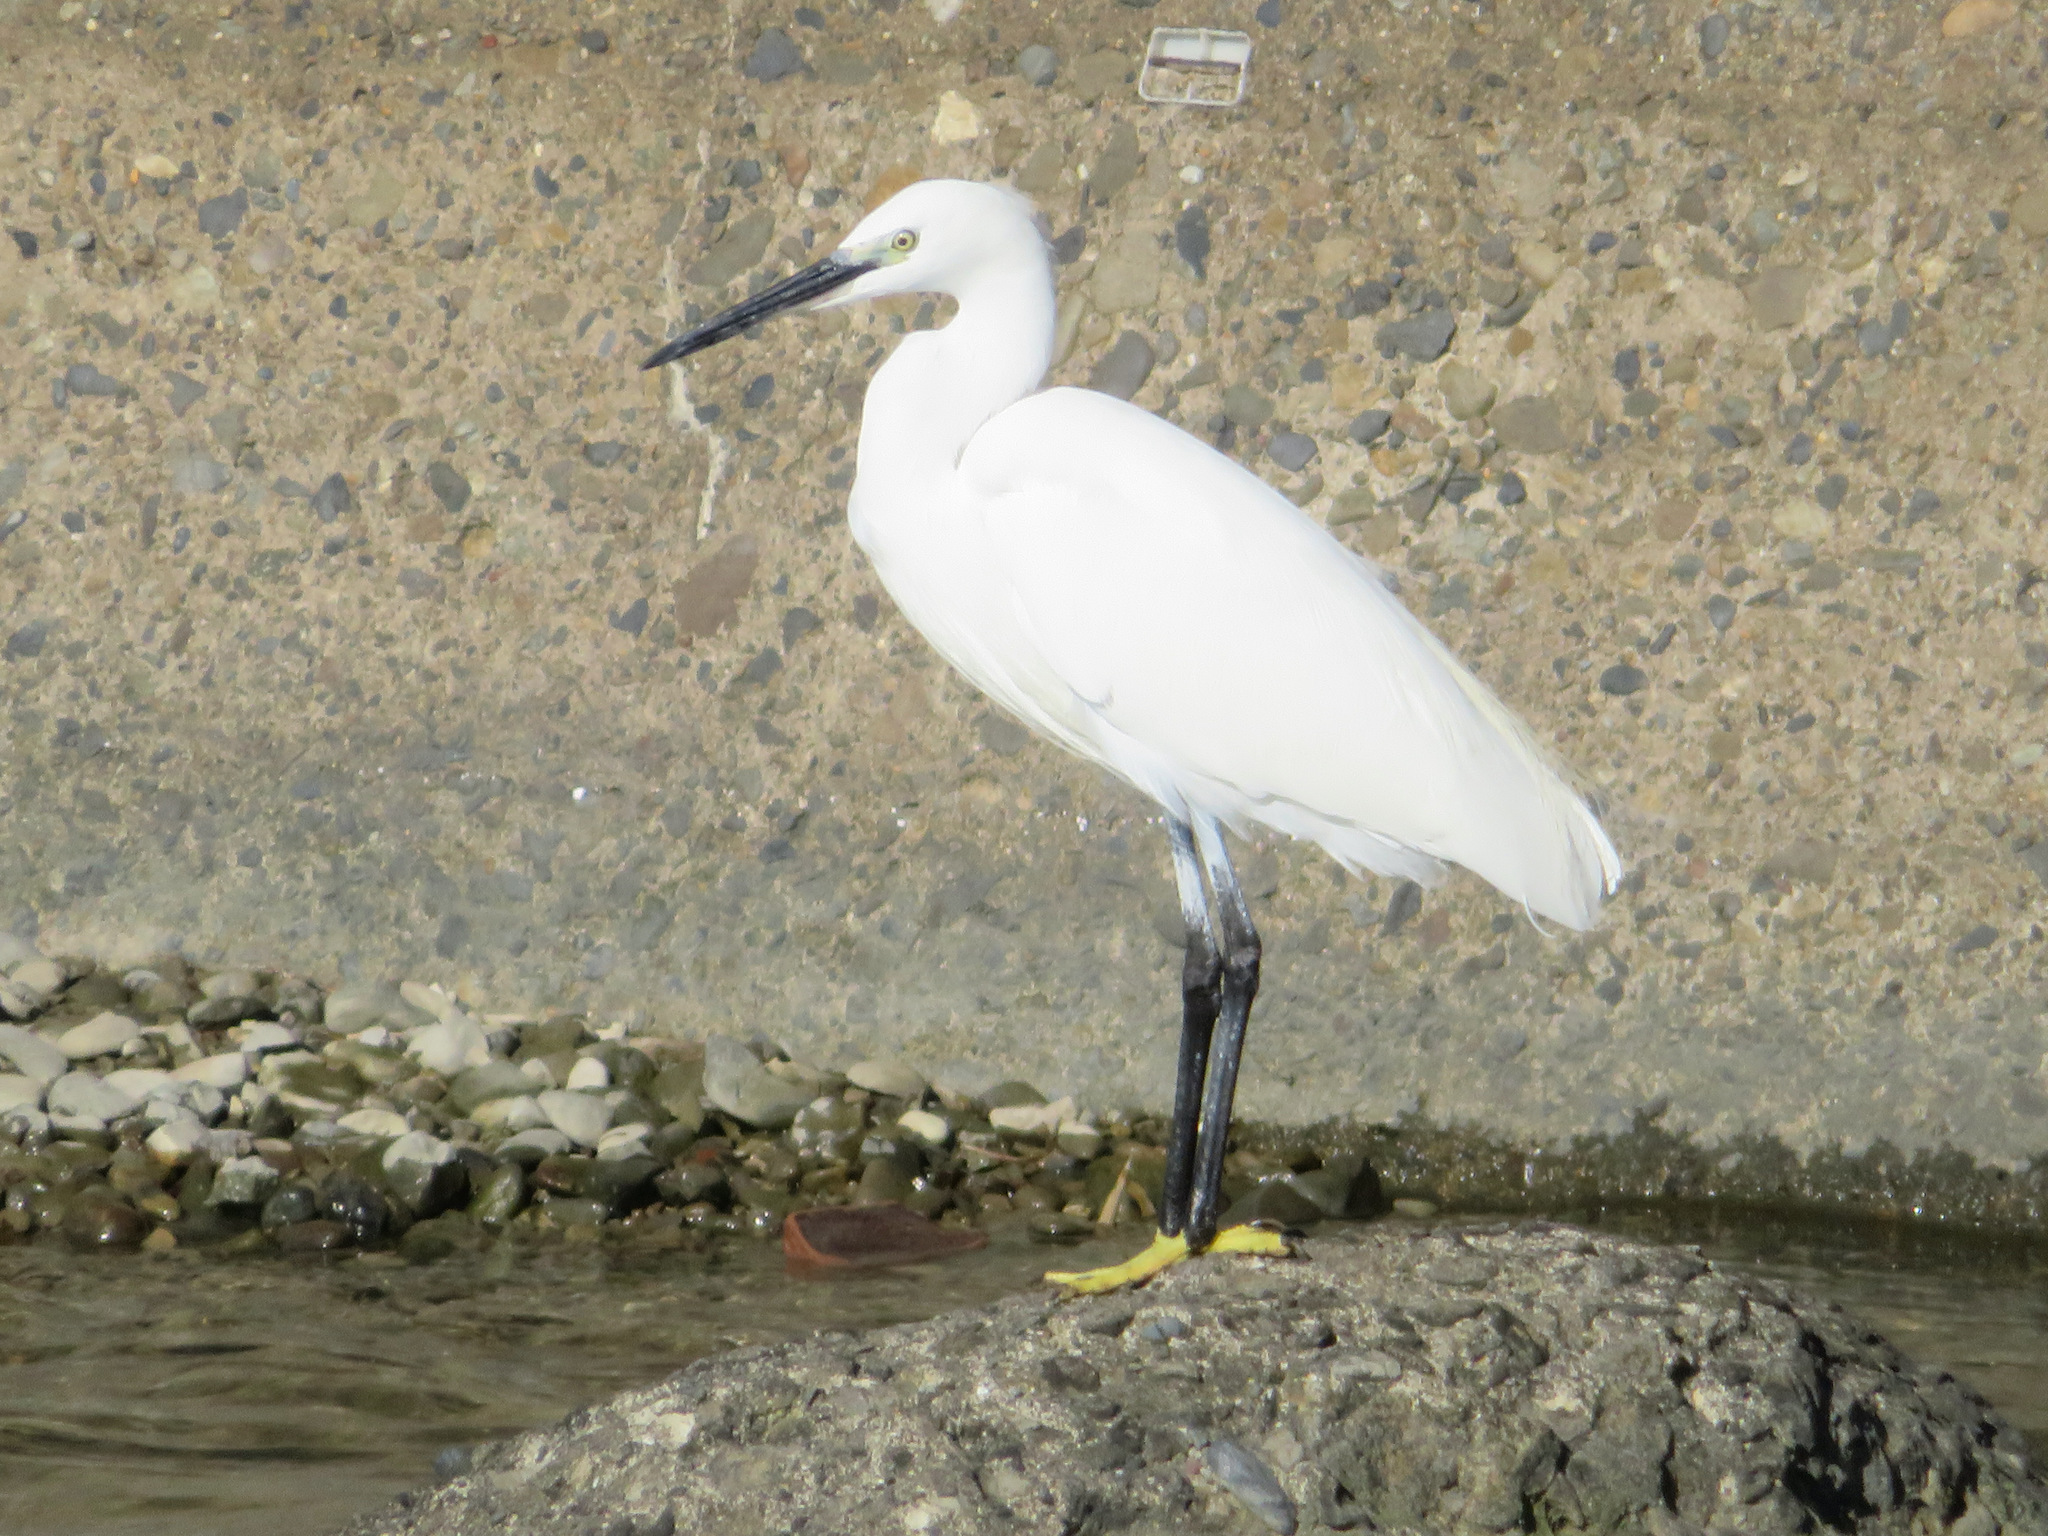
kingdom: Animalia
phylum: Chordata
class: Aves
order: Pelecaniformes
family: Ardeidae
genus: Egretta
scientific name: Egretta garzetta
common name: Little egret
